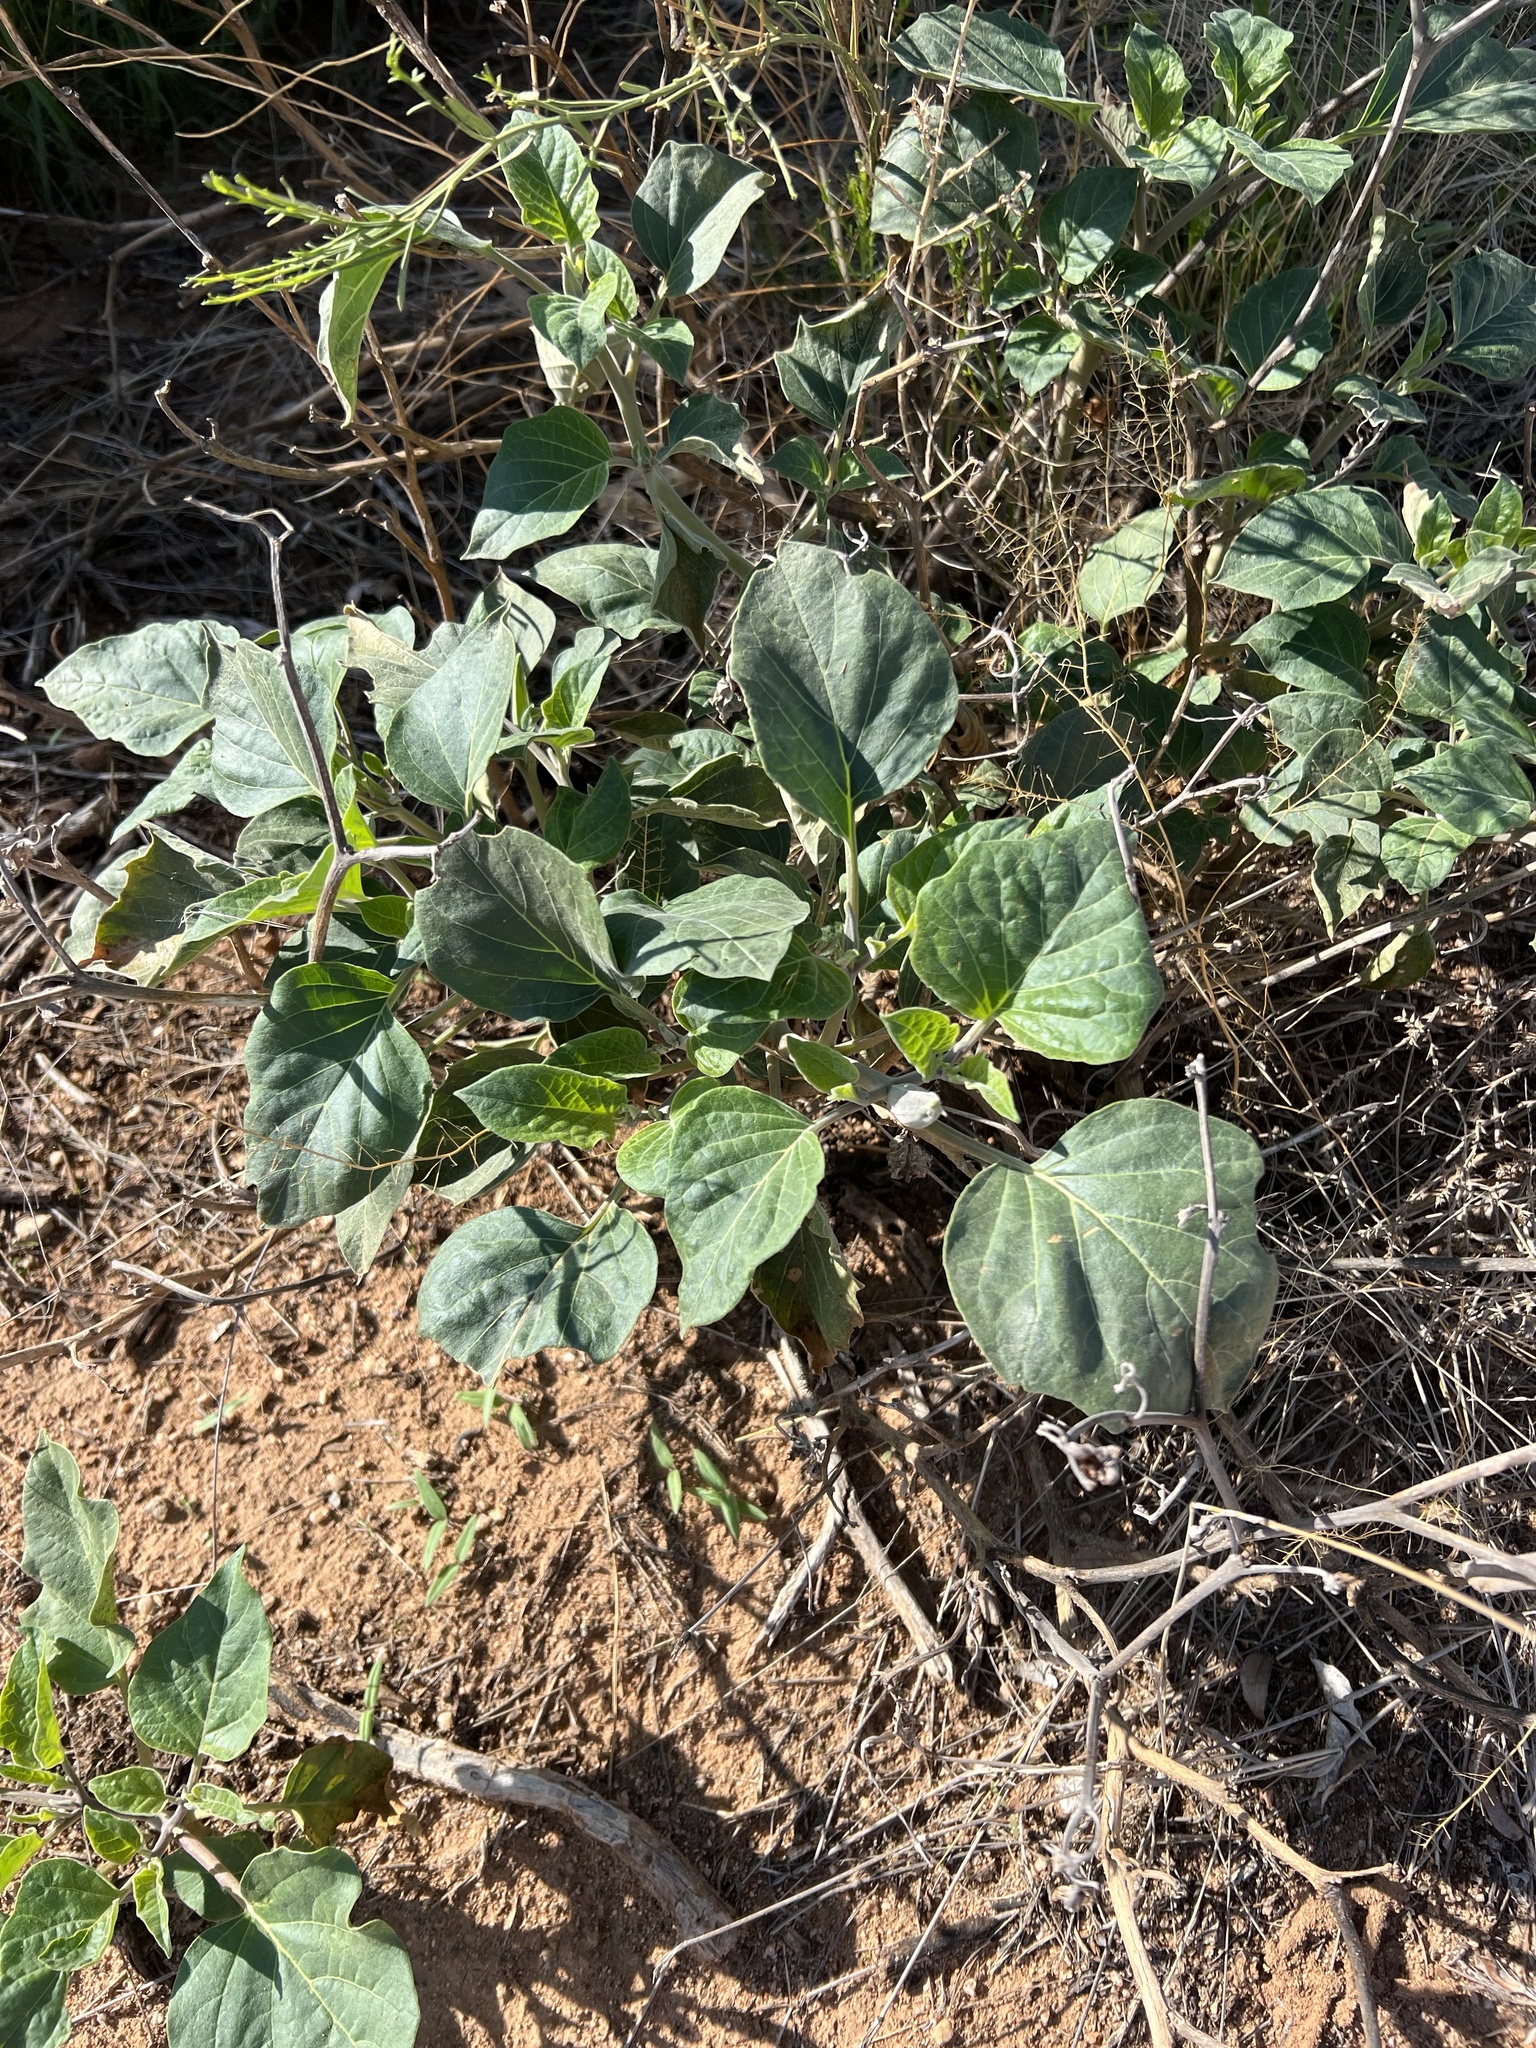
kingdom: Plantae
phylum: Tracheophyta
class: Magnoliopsida
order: Solanales
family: Solanaceae
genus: Datura
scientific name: Datura wrightii
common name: Sacred thorn-apple
